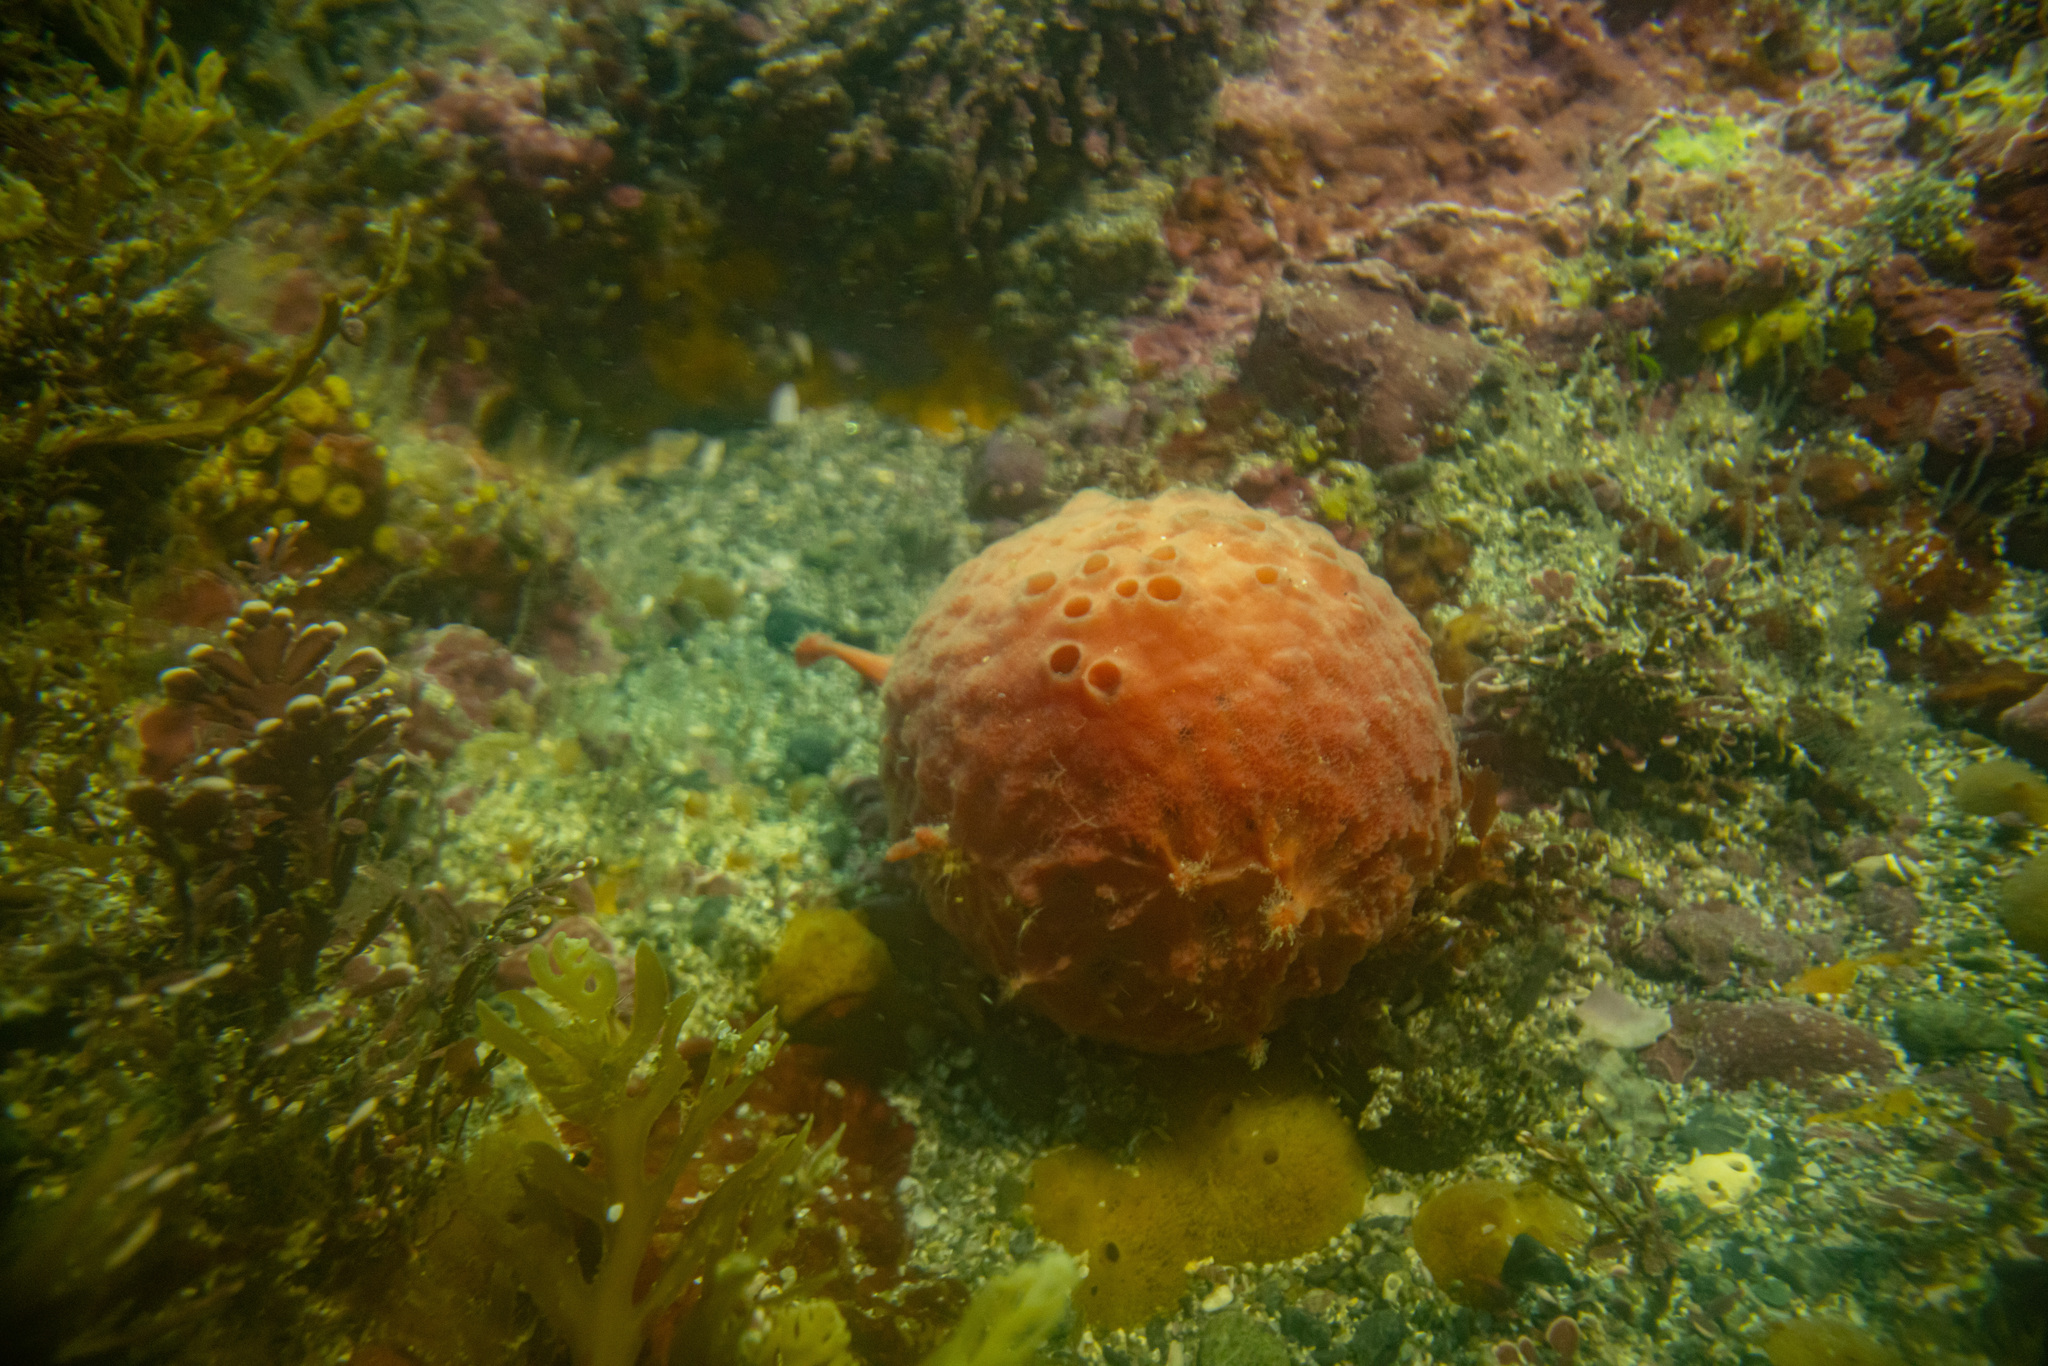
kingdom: Animalia
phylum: Porifera
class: Demospongiae
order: Tethyida
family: Tethyidae
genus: Tethya
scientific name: Tethya bergquistae
